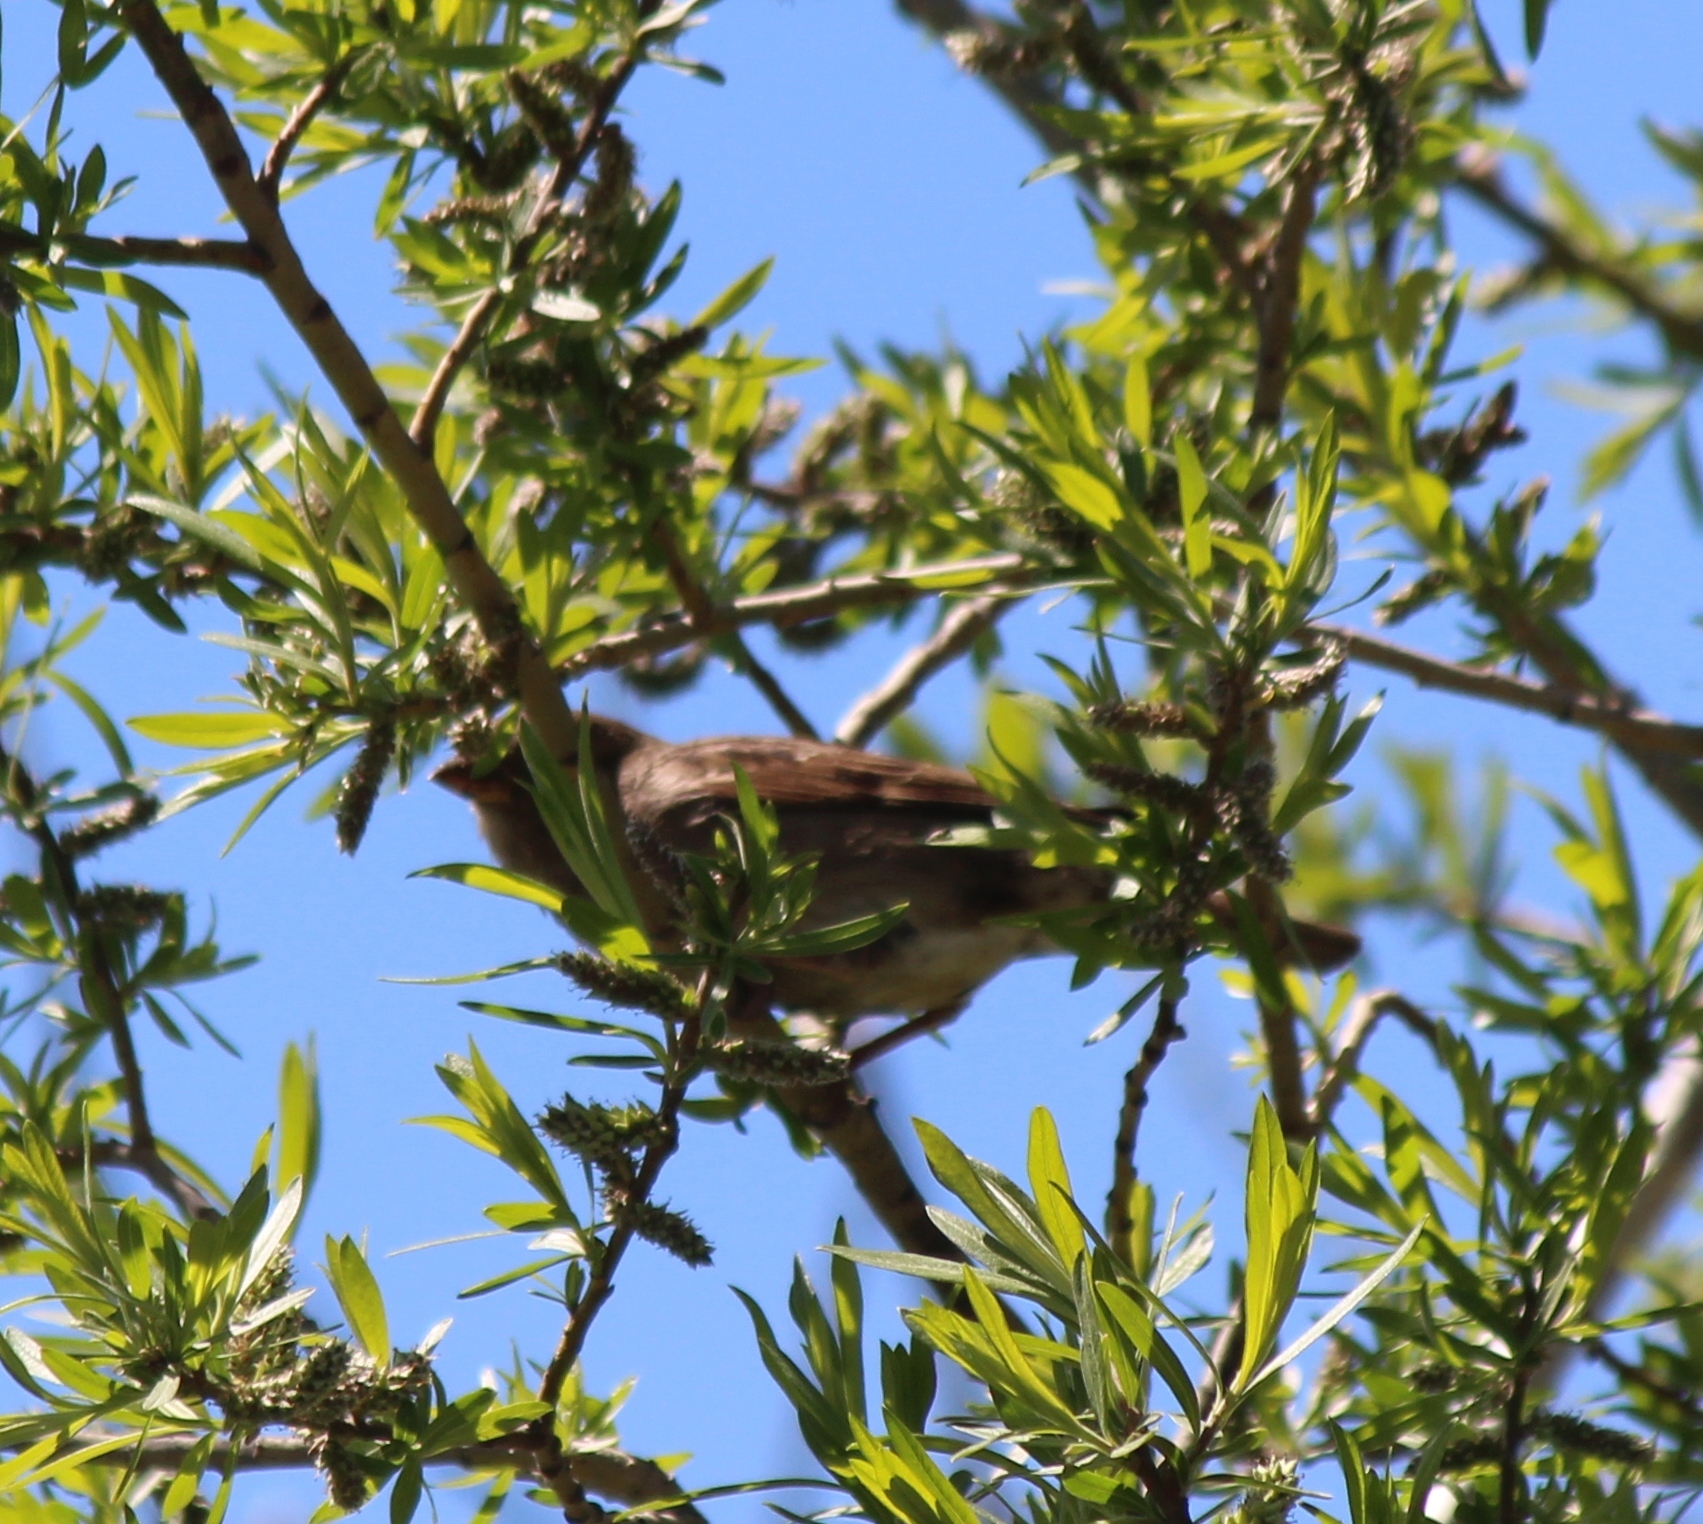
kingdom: Animalia
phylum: Chordata
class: Aves
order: Passeriformes
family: Passeridae
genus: Passer
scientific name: Passer domesticus
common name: House sparrow
